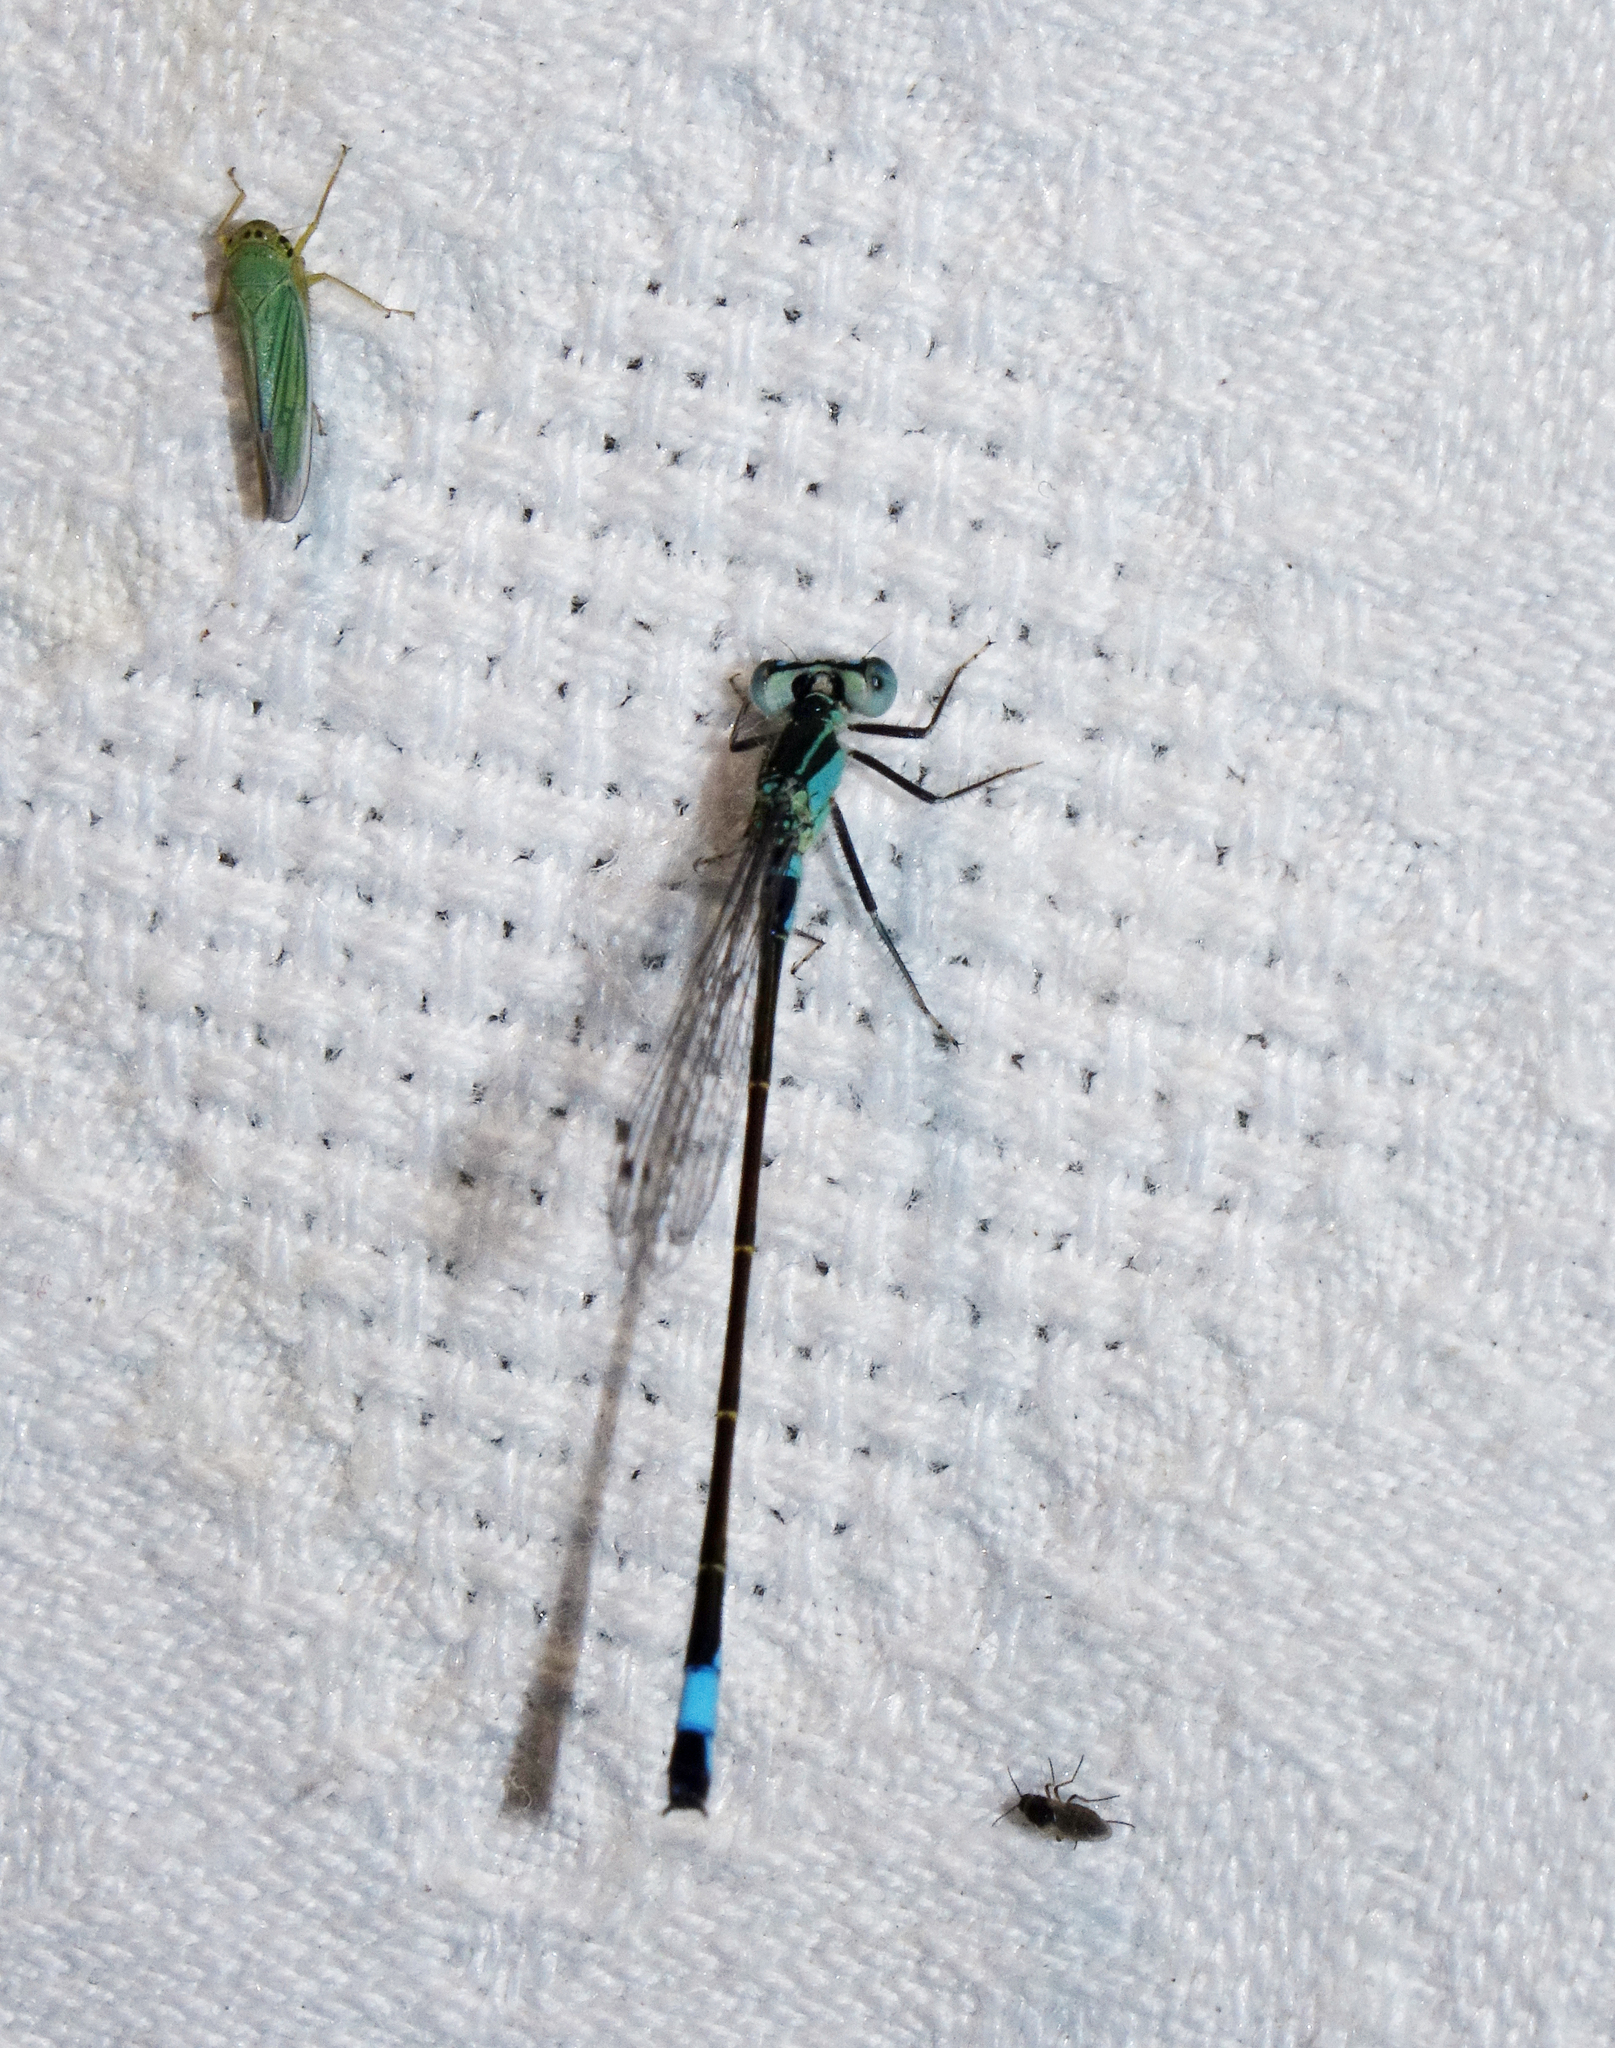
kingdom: Animalia
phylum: Arthropoda
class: Insecta
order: Odonata
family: Coenagrionidae
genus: Ischnura
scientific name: Ischnura elegans
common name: Blue-tailed damselfly
